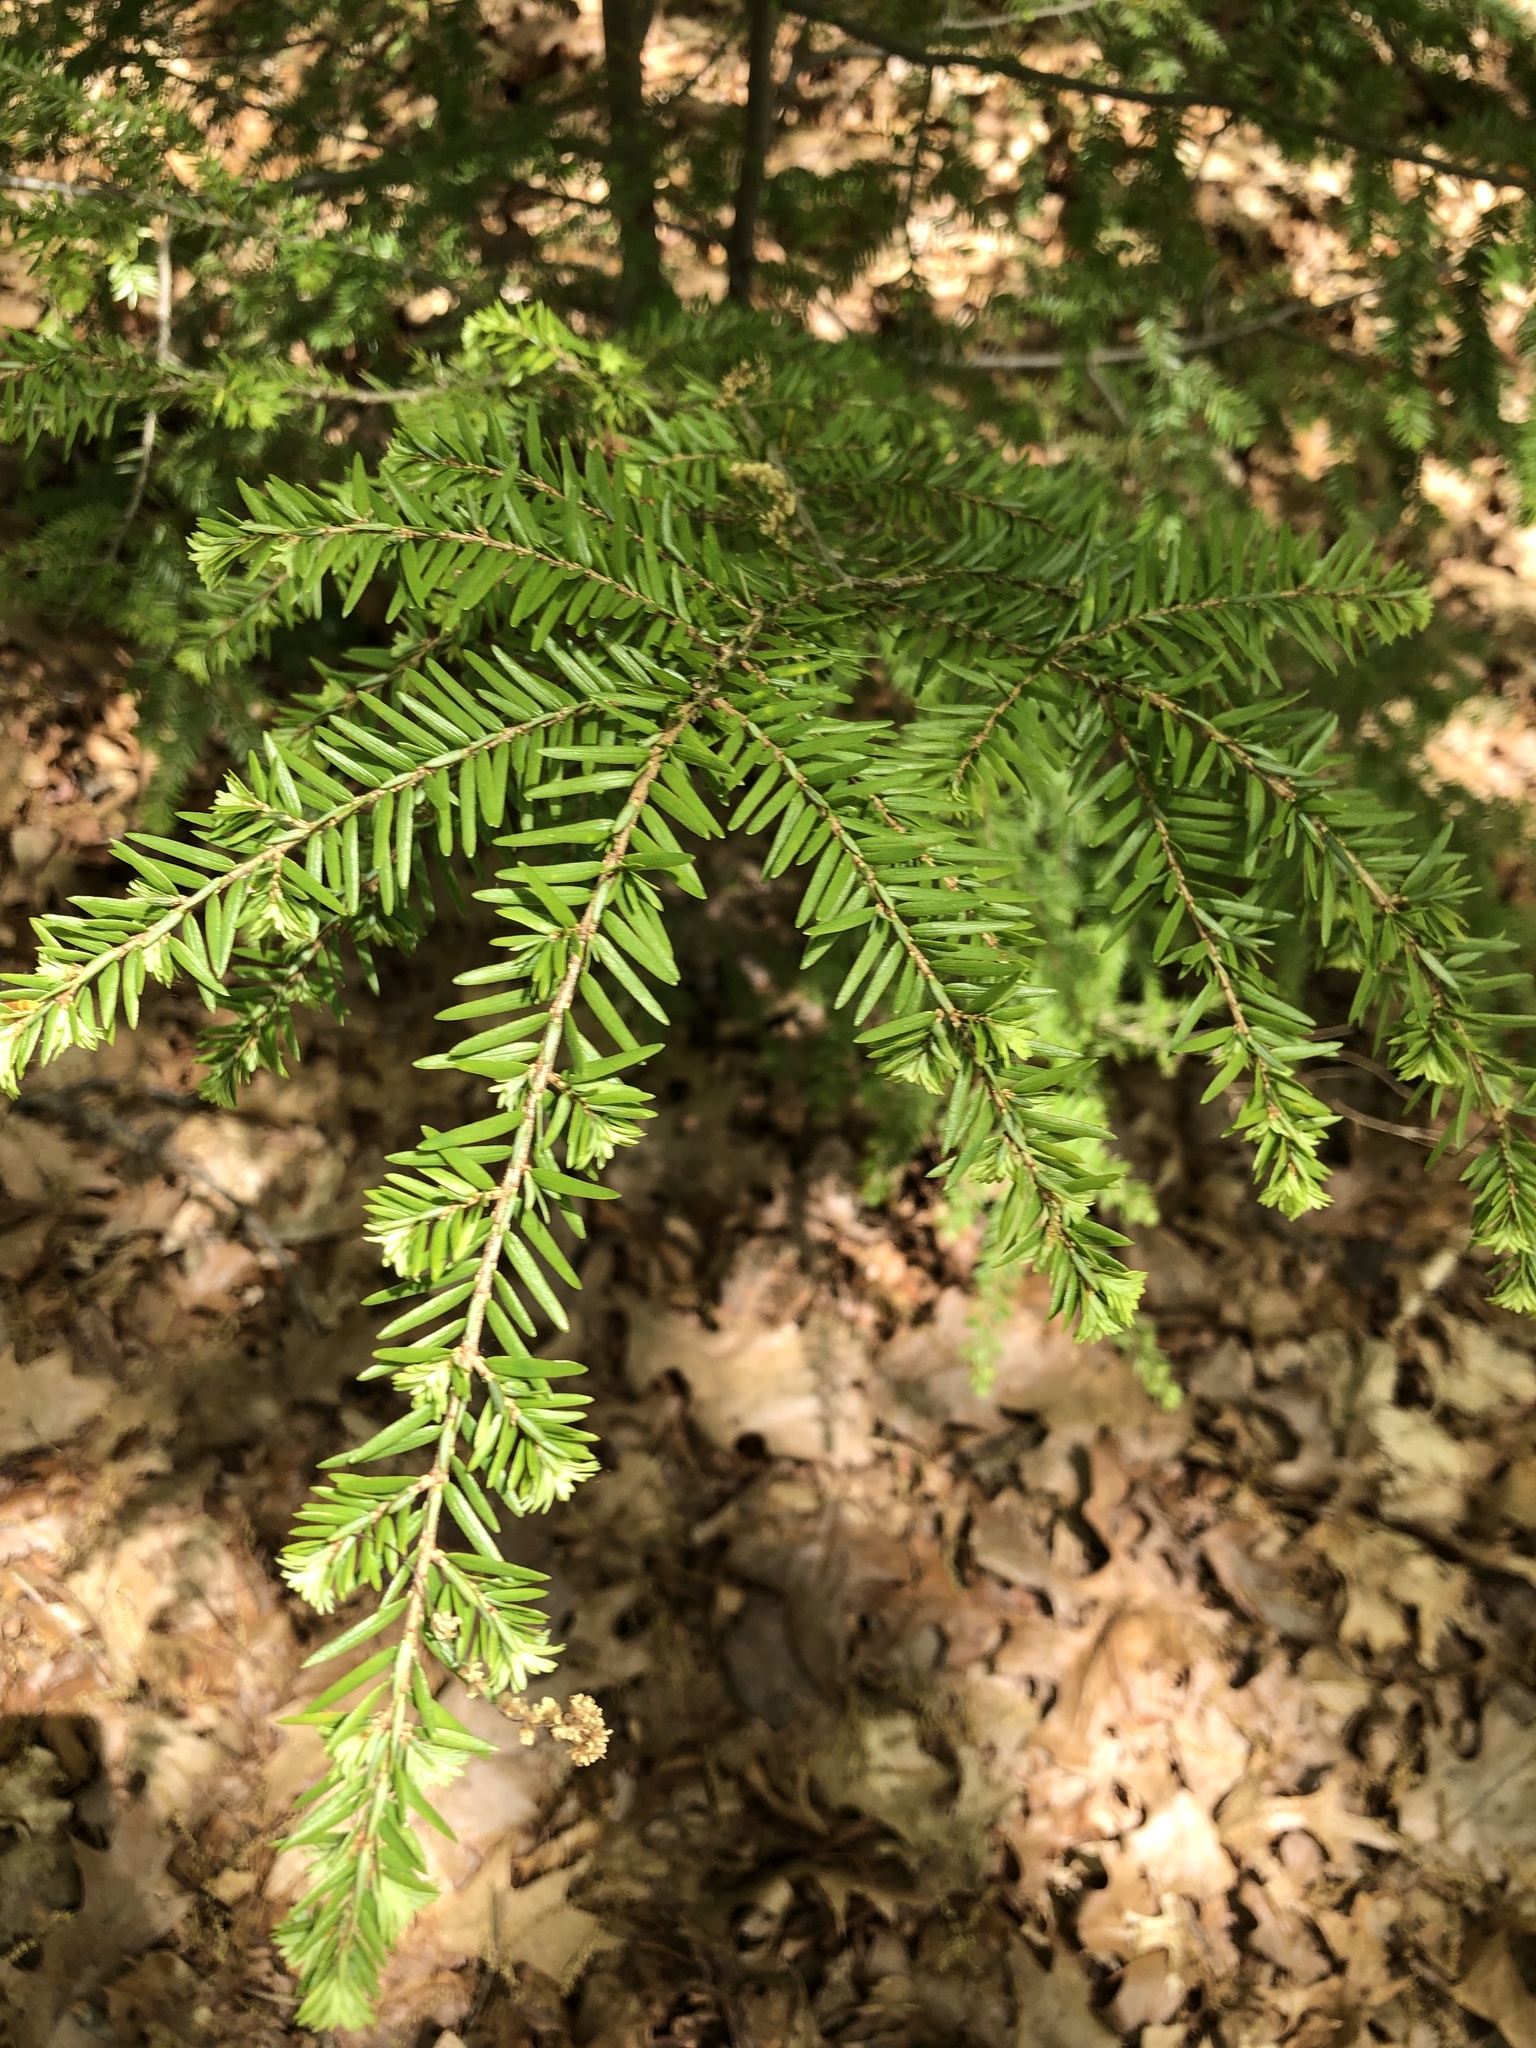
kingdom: Plantae
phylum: Tracheophyta
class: Pinopsida
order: Pinales
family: Pinaceae
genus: Tsuga
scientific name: Tsuga canadensis
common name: Eastern hemlock
